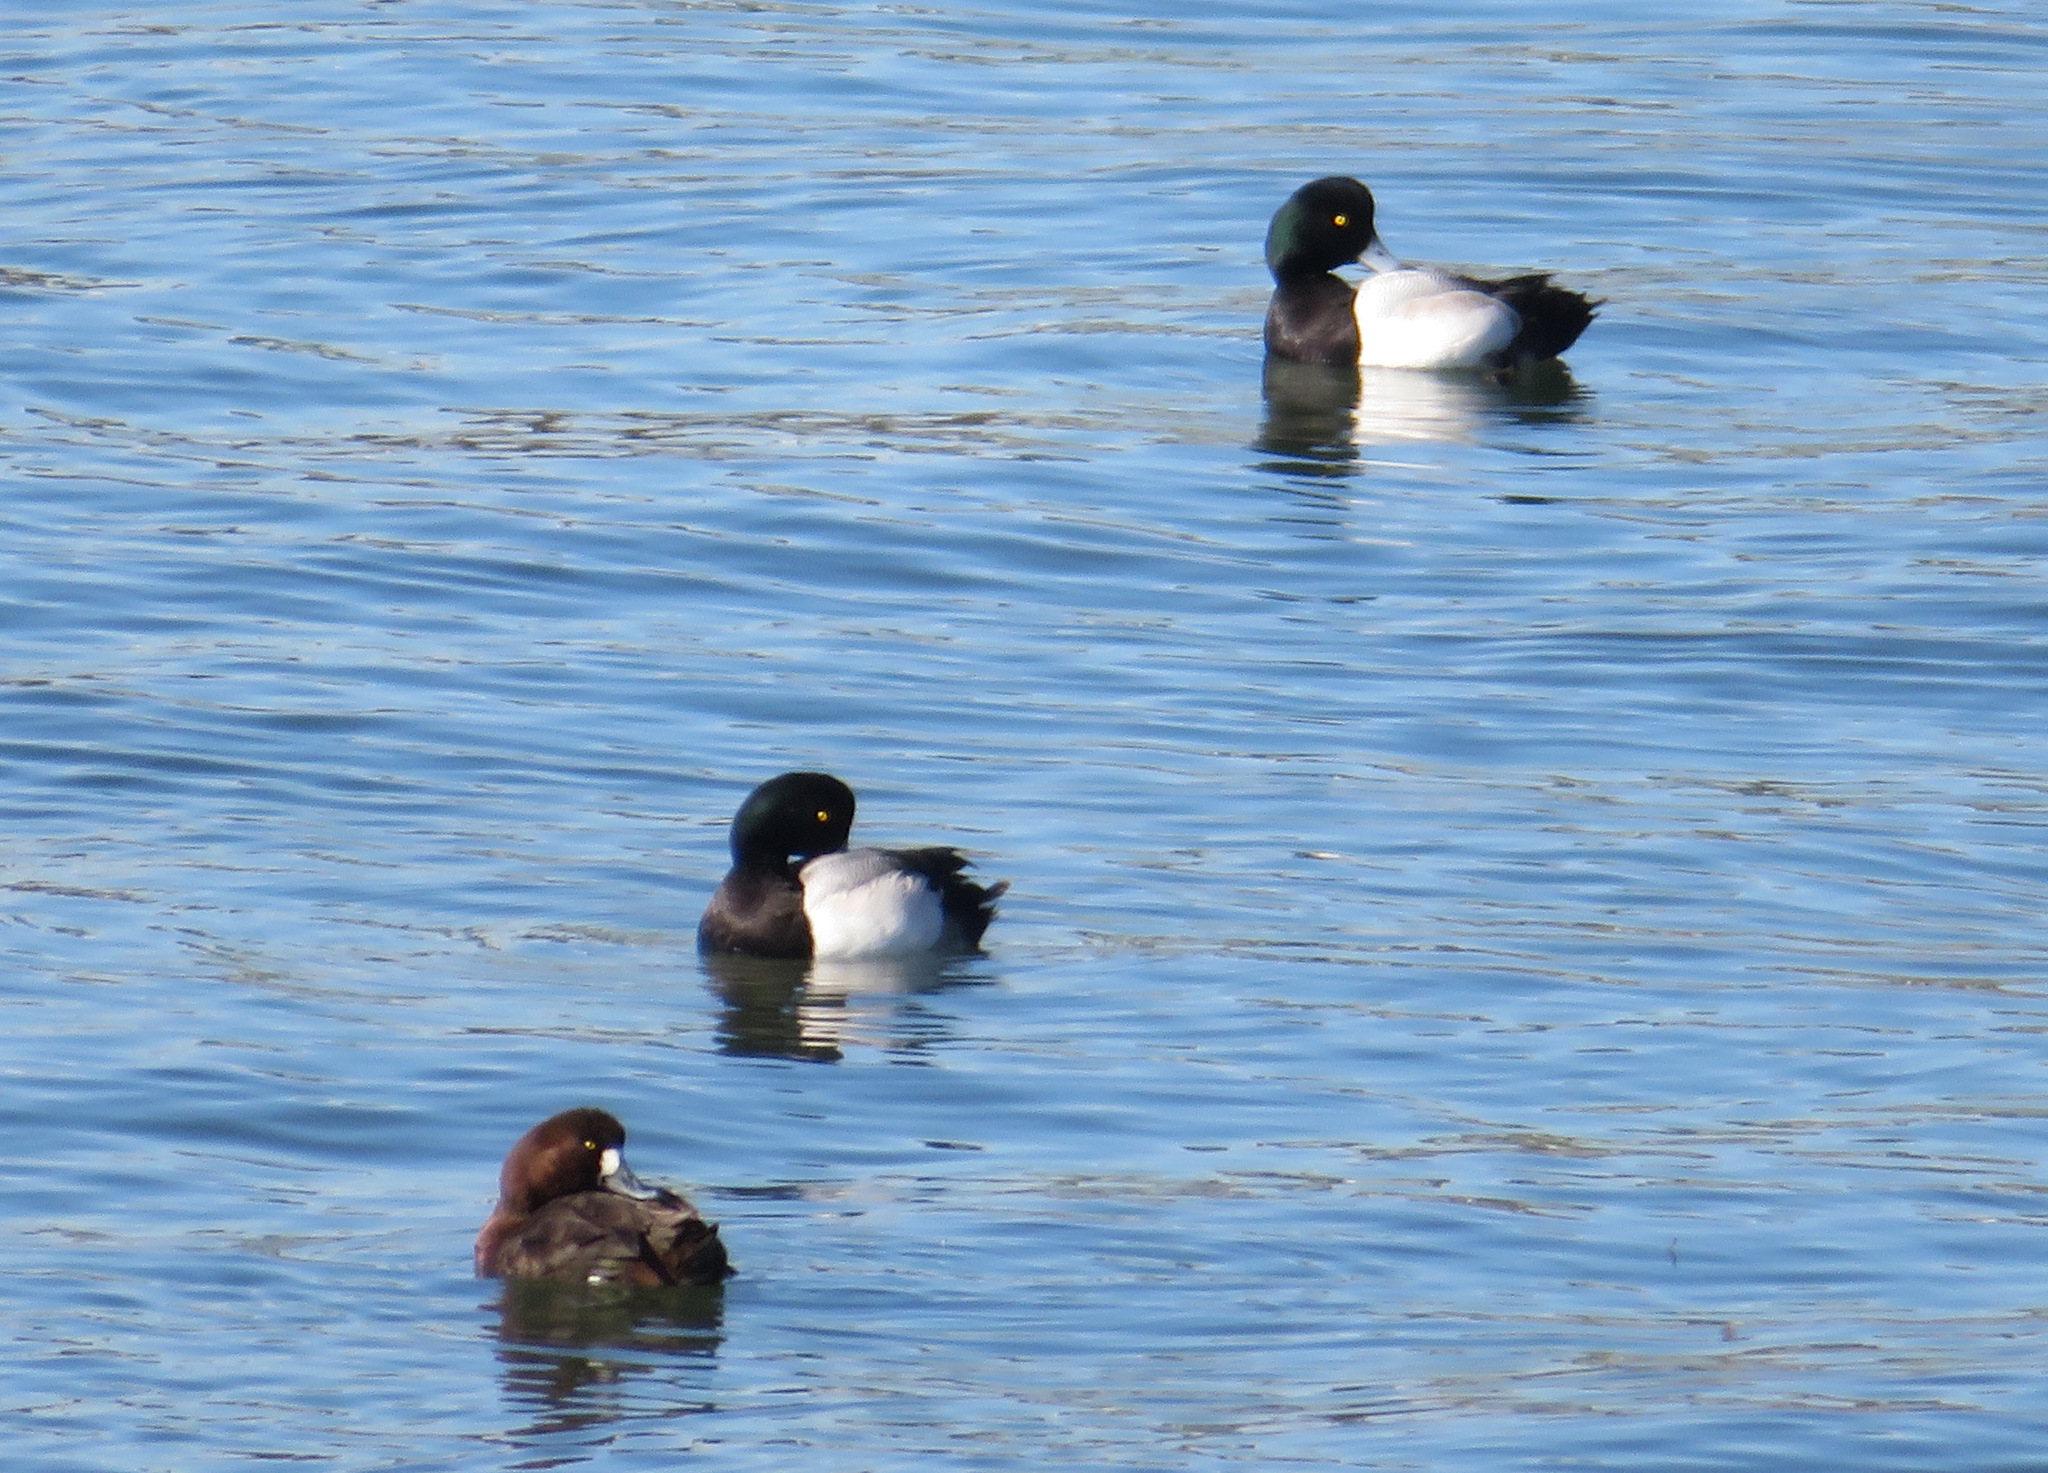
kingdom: Animalia
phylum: Chordata
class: Aves
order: Anseriformes
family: Anatidae
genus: Aythya
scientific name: Aythya marila
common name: Greater scaup
